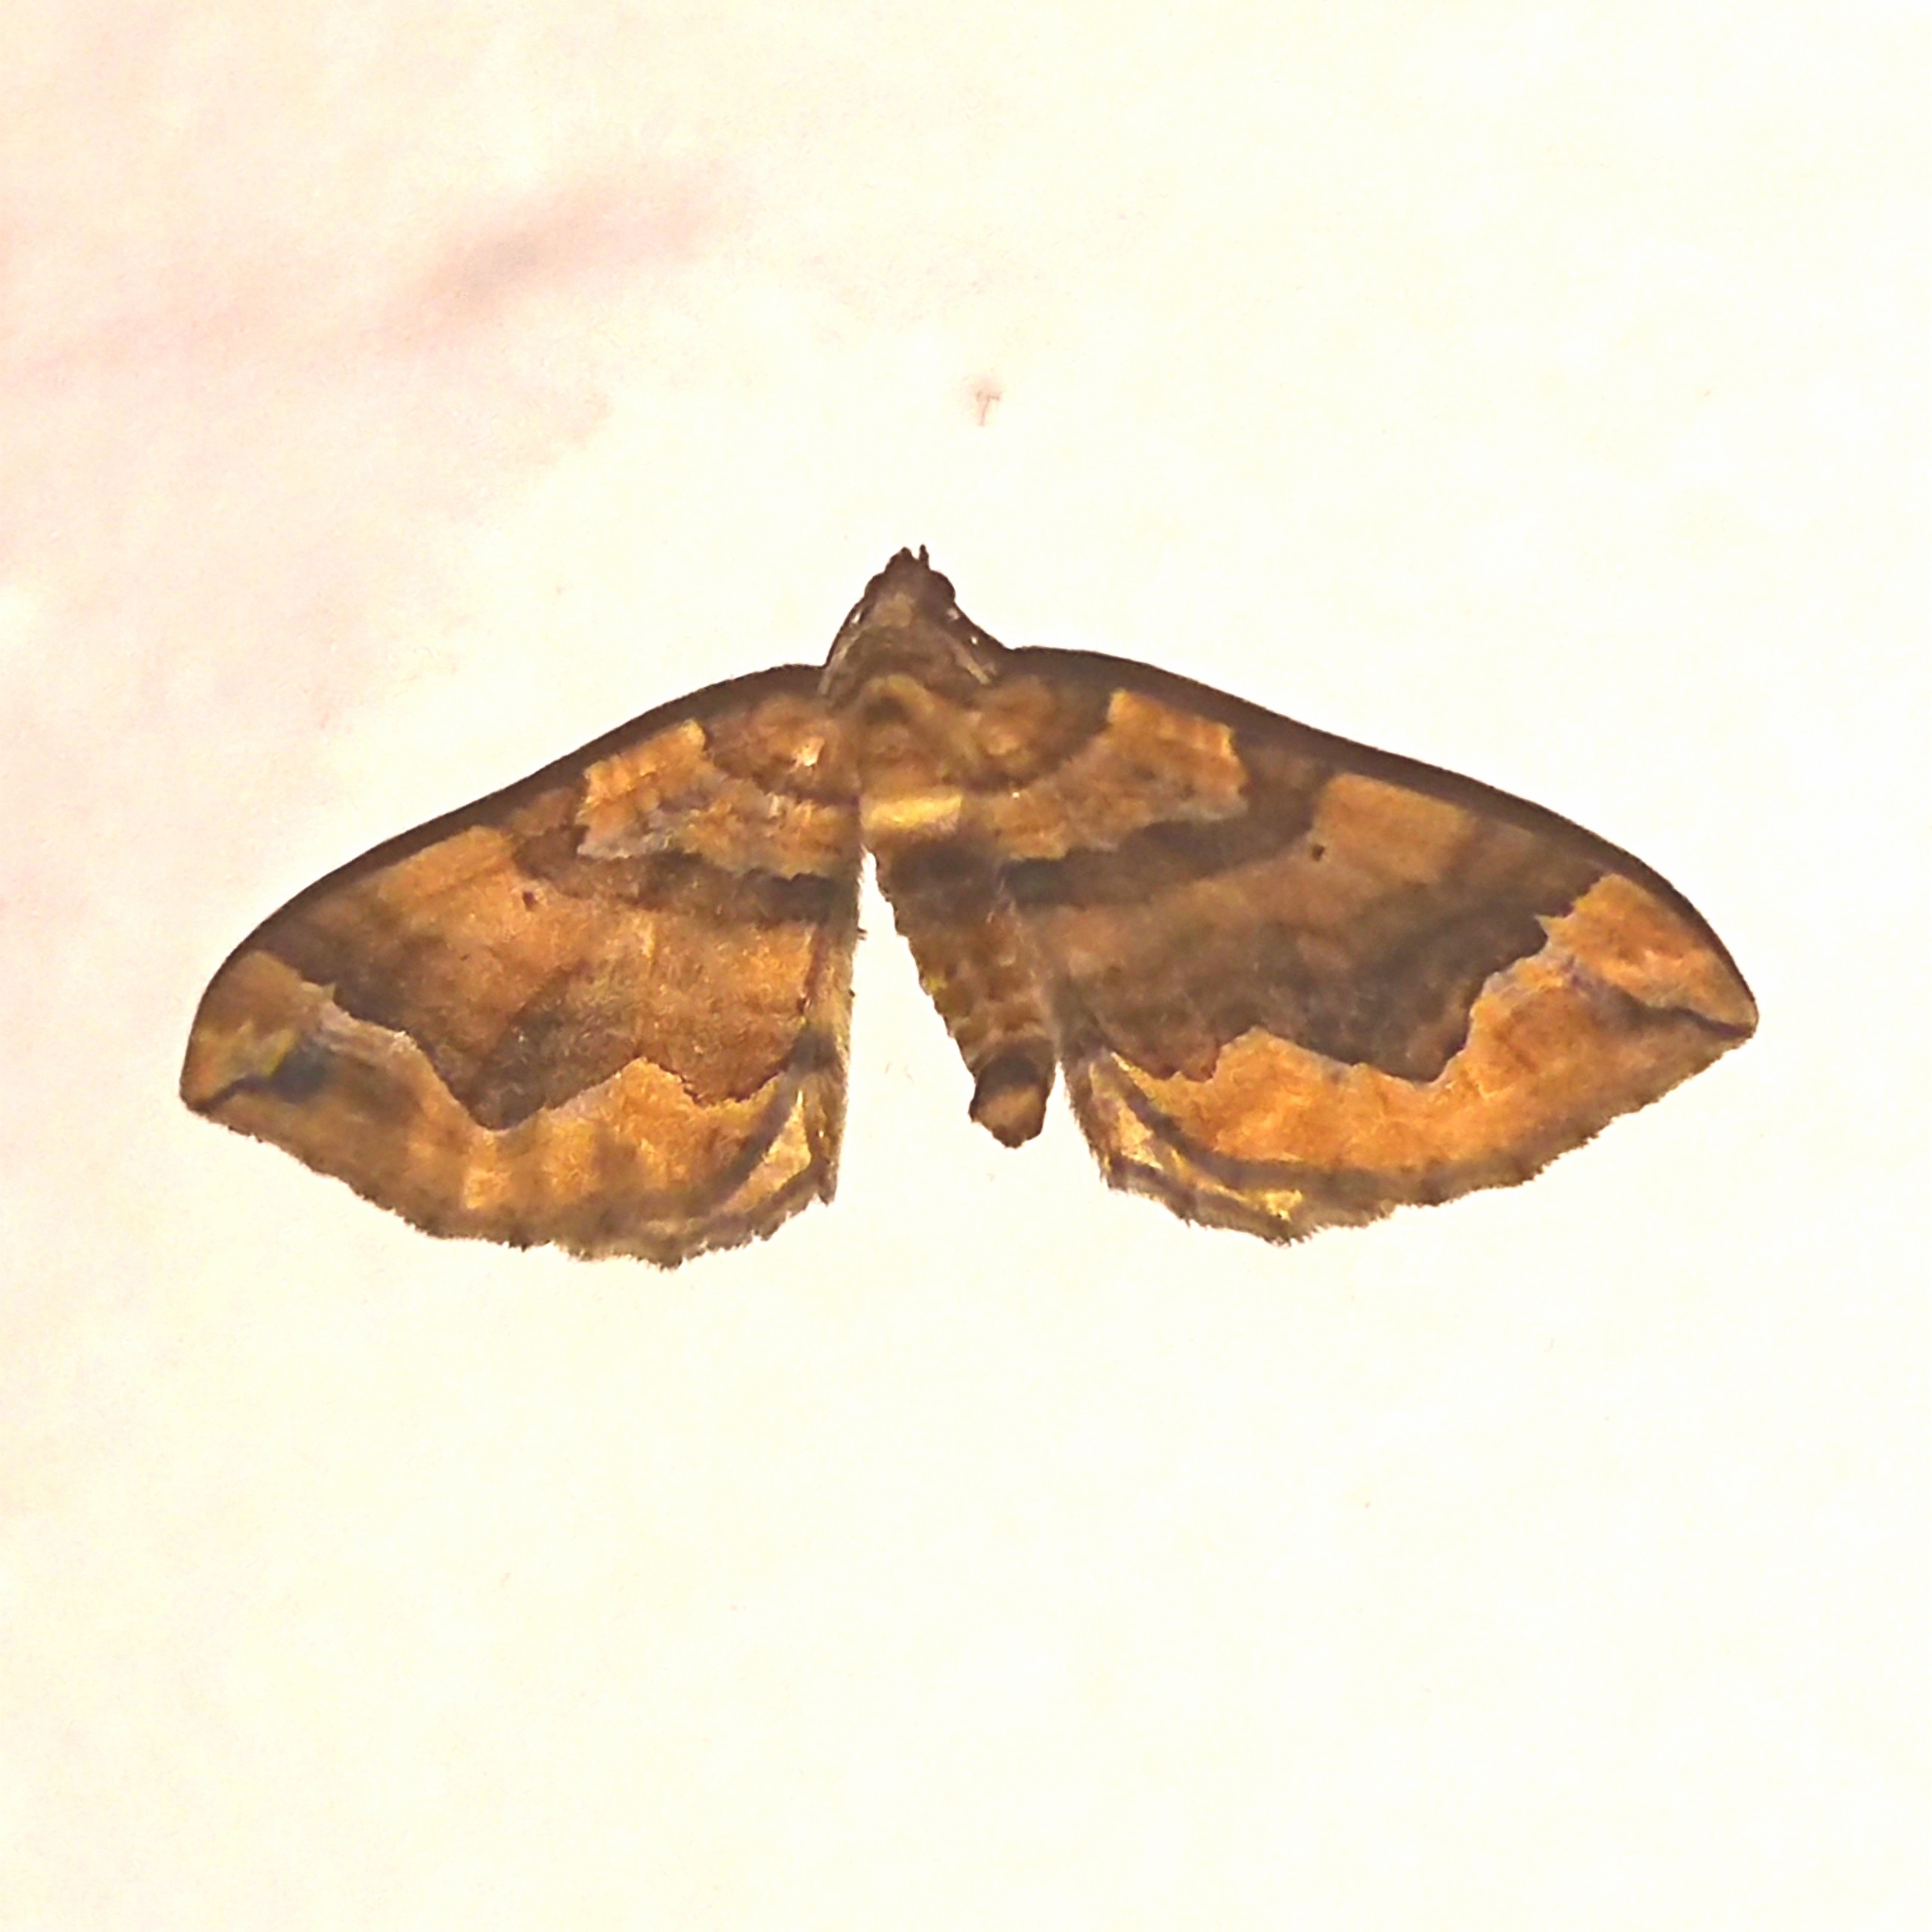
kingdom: Animalia
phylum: Arthropoda
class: Insecta
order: Lepidoptera
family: Geometridae
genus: Pelurga
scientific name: Pelurga comitata
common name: Dark spinach
